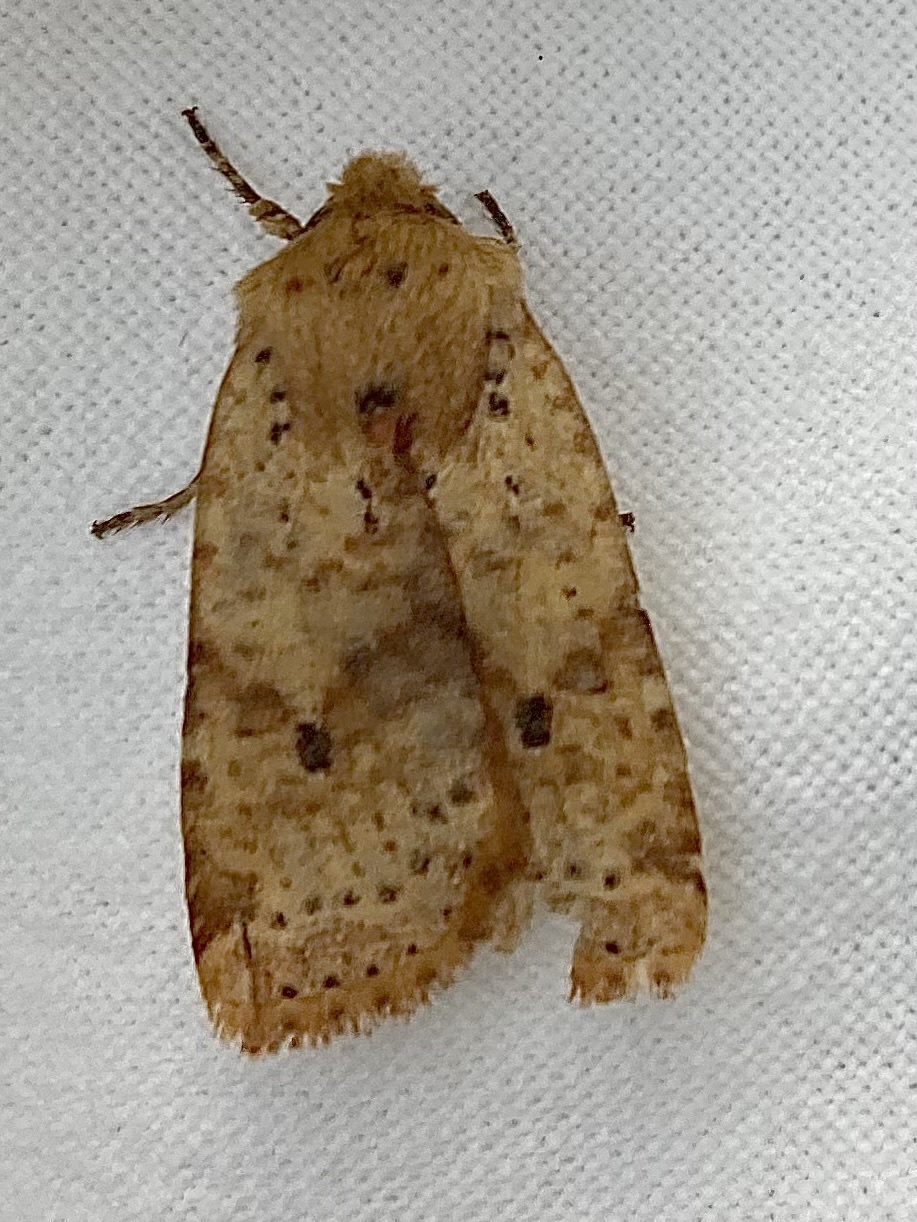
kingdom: Animalia
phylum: Arthropoda
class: Insecta
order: Lepidoptera
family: Noctuidae
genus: Conistra
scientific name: Conistra rubiginea
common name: Dotted chestnut
